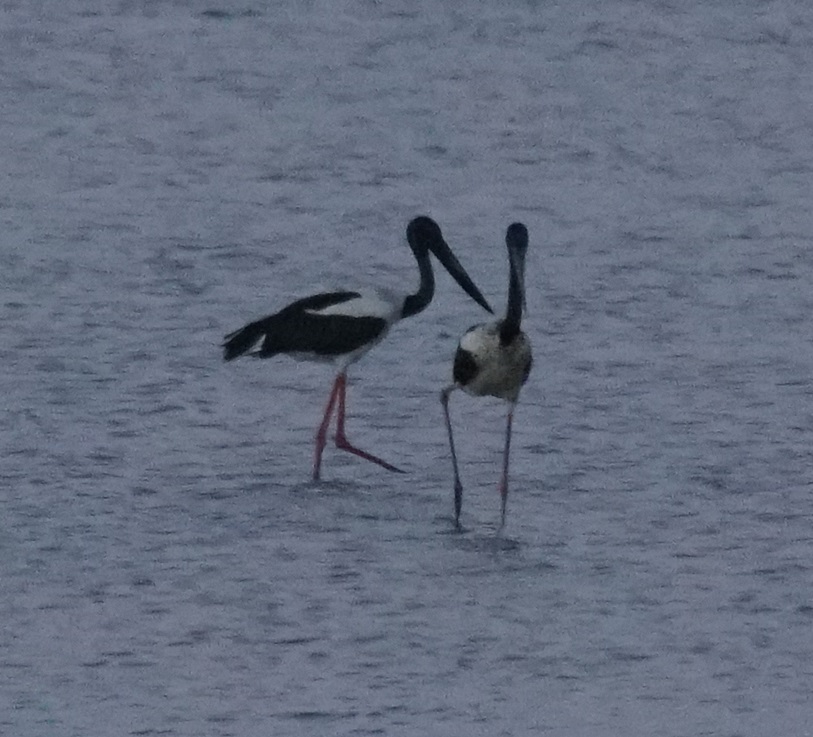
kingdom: Animalia
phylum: Chordata
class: Aves
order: Ciconiiformes
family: Ciconiidae
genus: Ephippiorhynchus
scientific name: Ephippiorhynchus asiaticus
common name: Black-necked stork
